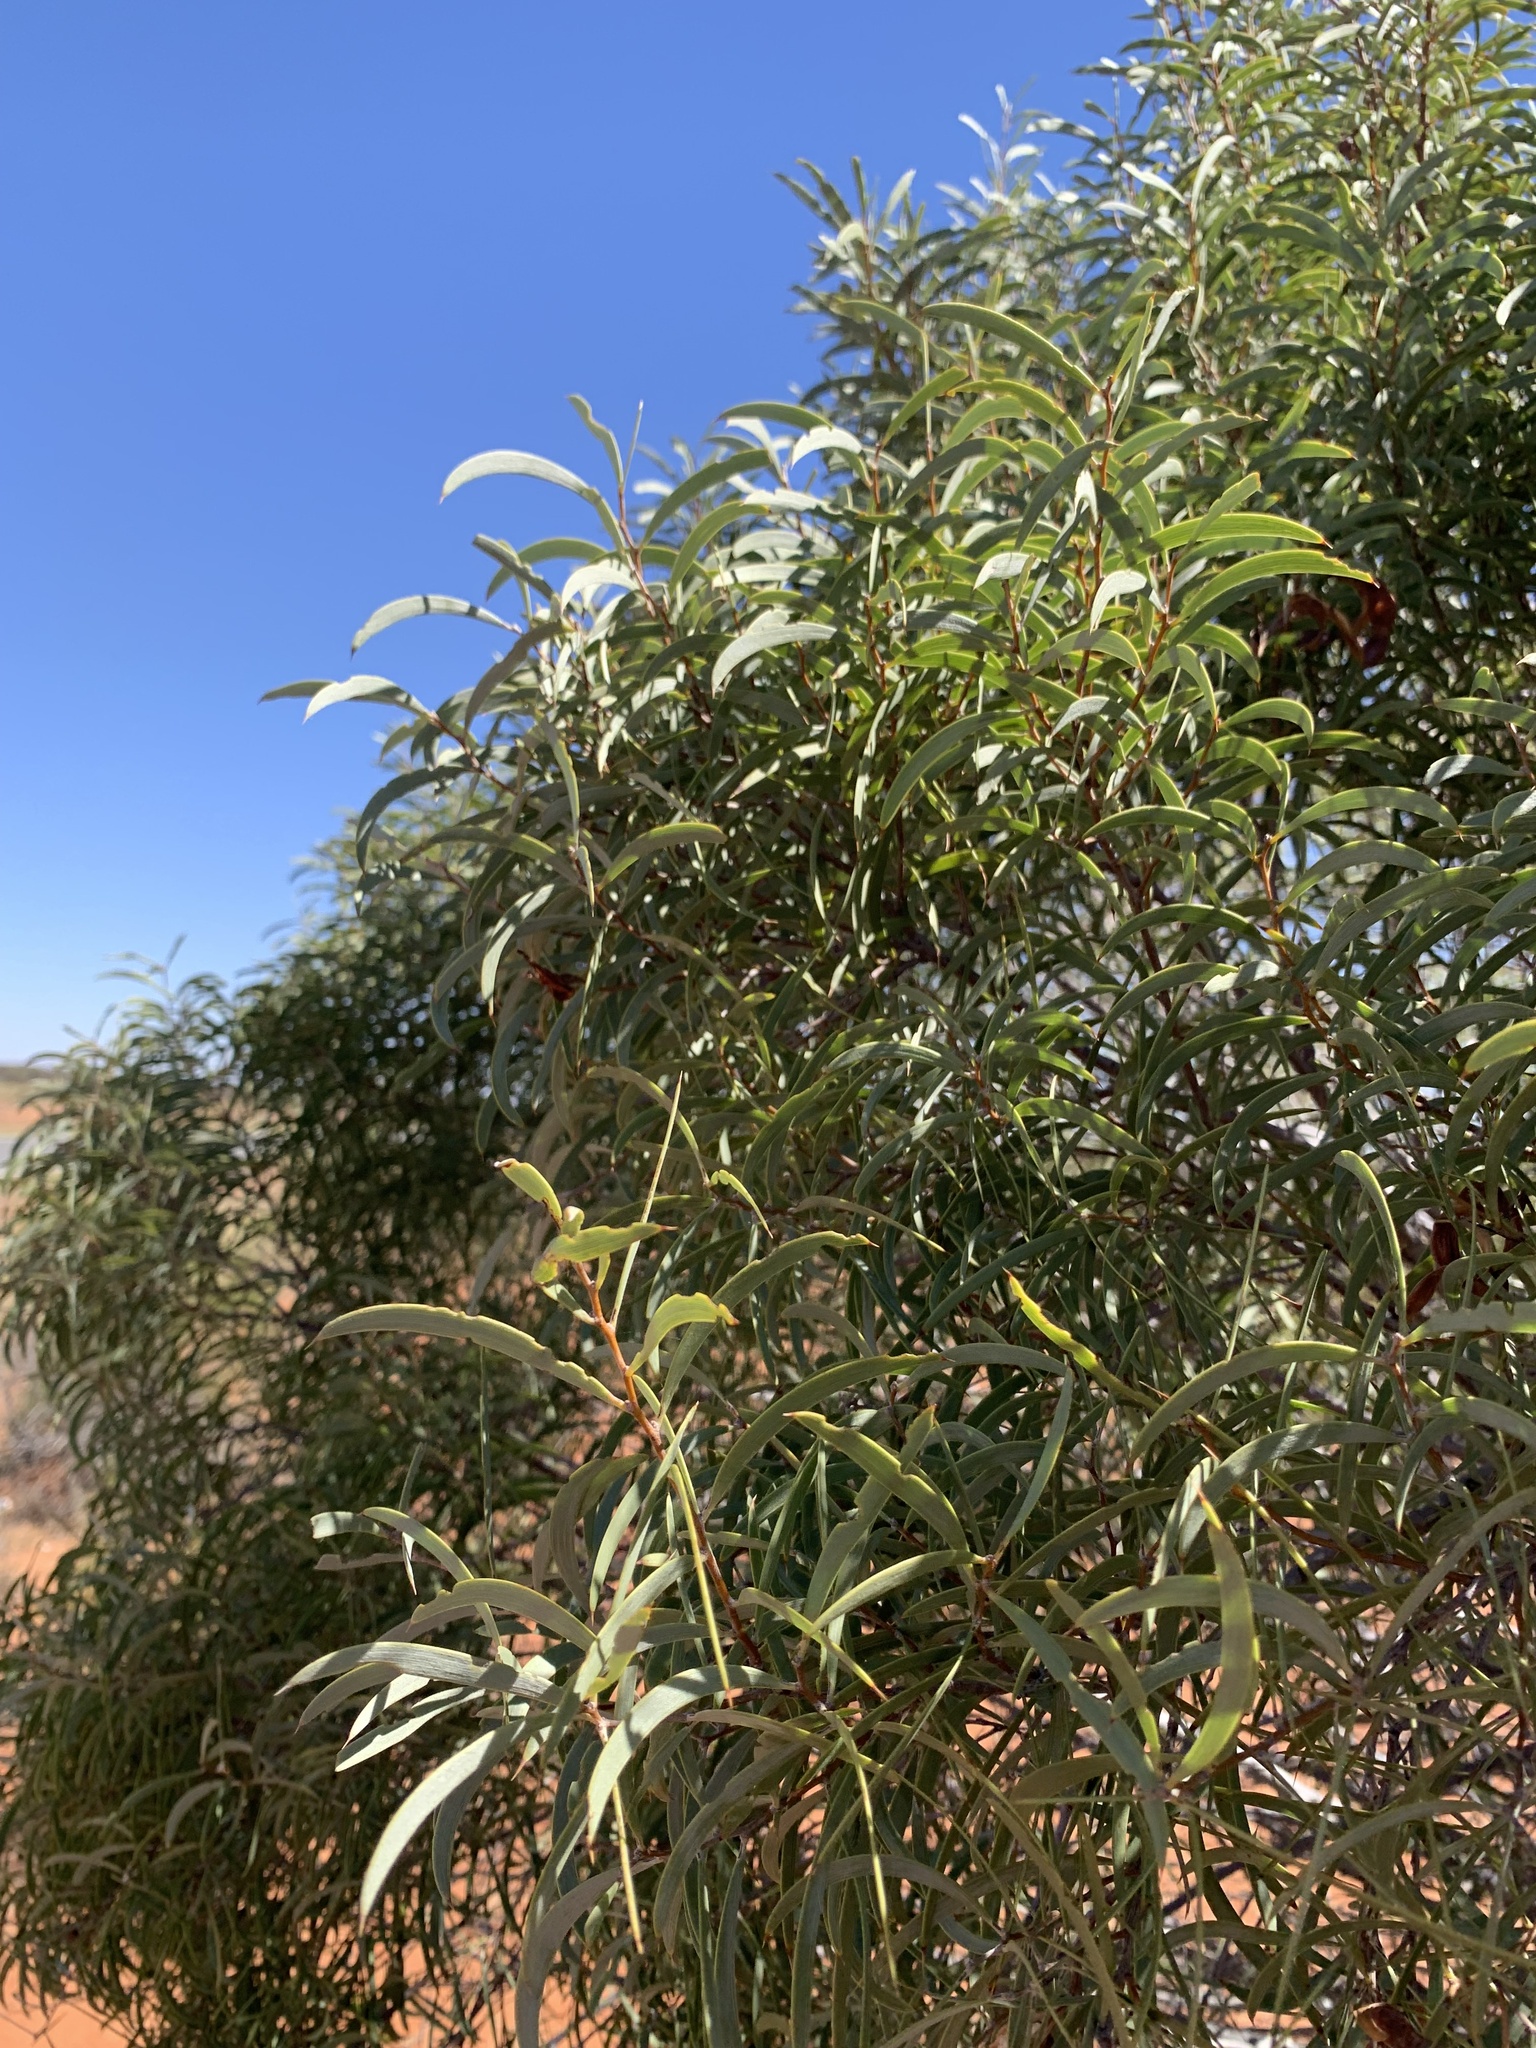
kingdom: Plantae
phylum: Tracheophyta
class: Magnoliopsida
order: Fabales
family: Fabaceae
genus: Acacia
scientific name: Acacia oswaldii
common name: Umbrella wattle
